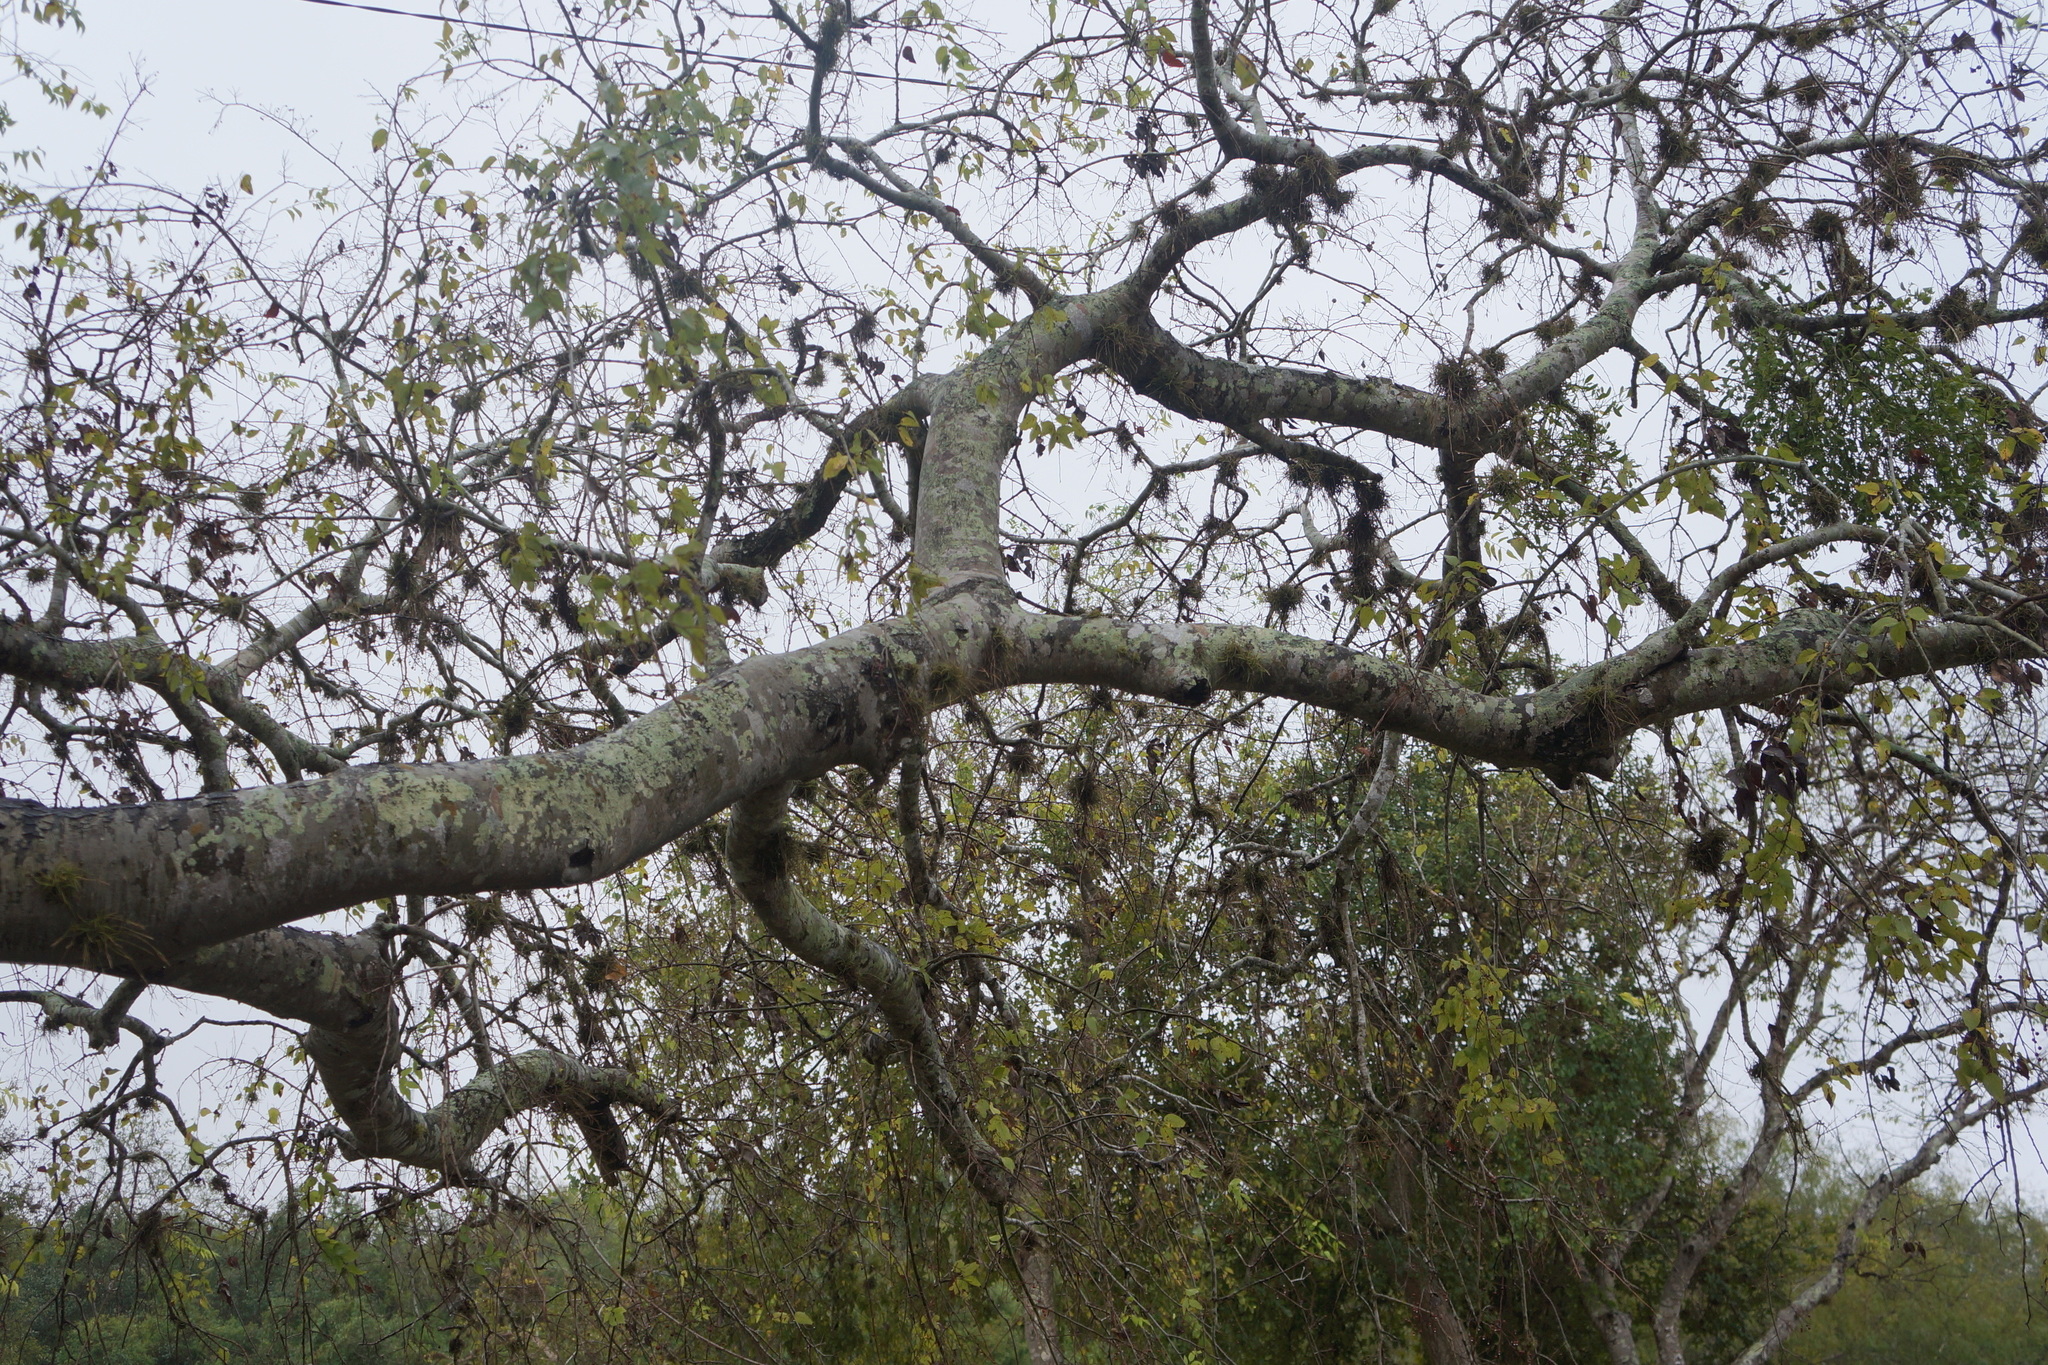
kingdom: Plantae
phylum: Tracheophyta
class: Liliopsida
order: Poales
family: Bromeliaceae
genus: Tillandsia
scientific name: Tillandsia recurvata
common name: Small ballmoss
